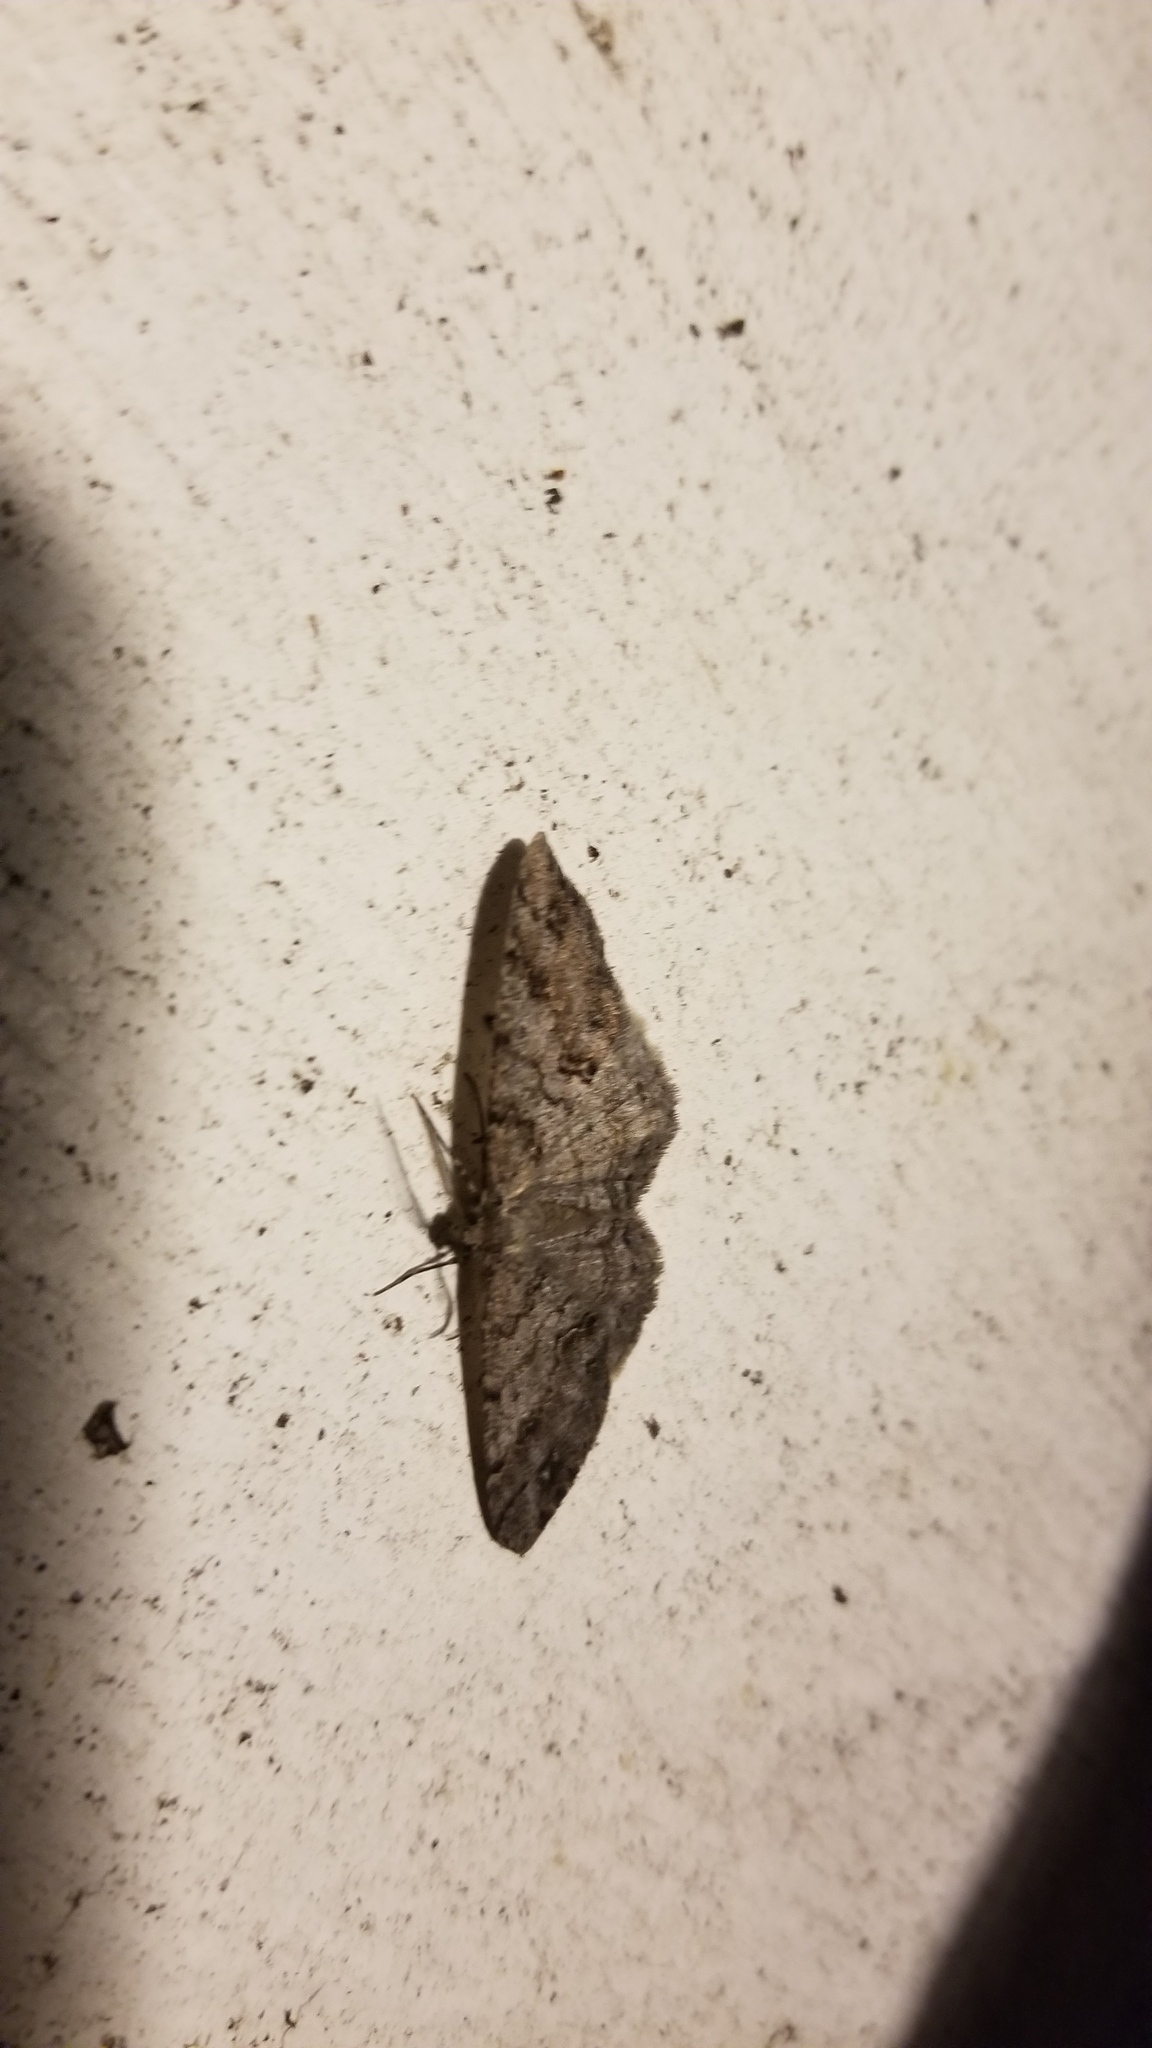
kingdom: Animalia
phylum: Arthropoda
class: Insecta
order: Lepidoptera
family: Geometridae
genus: Melanolophia
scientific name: Melanolophia imitata
